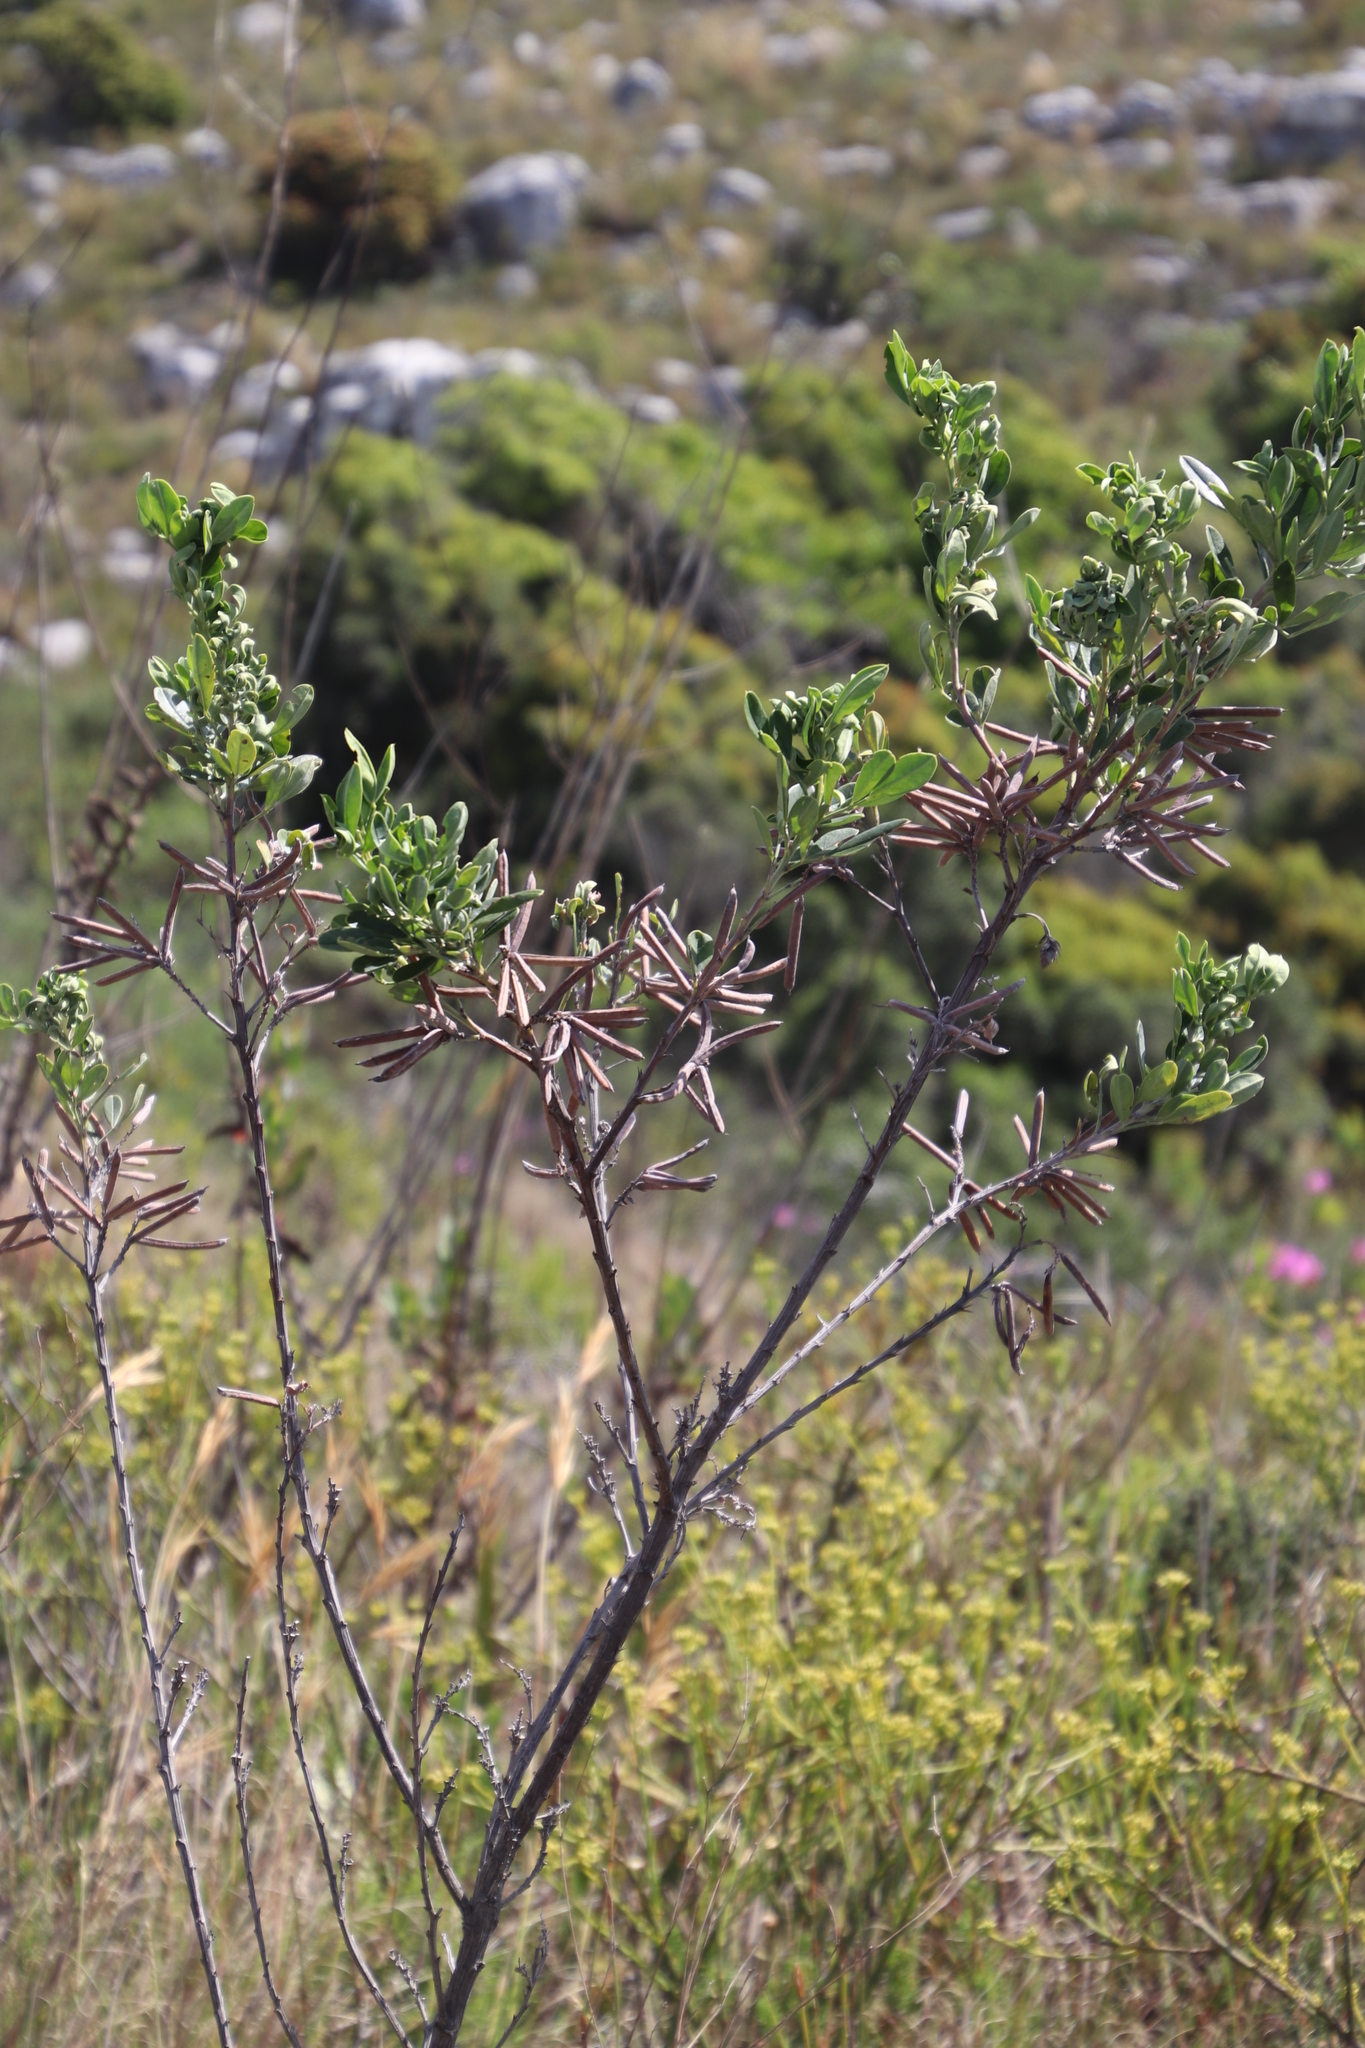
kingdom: Plantae
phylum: Tracheophyta
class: Magnoliopsida
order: Fabales
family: Fabaceae
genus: Indigofera
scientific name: Indigofera cytisoides
